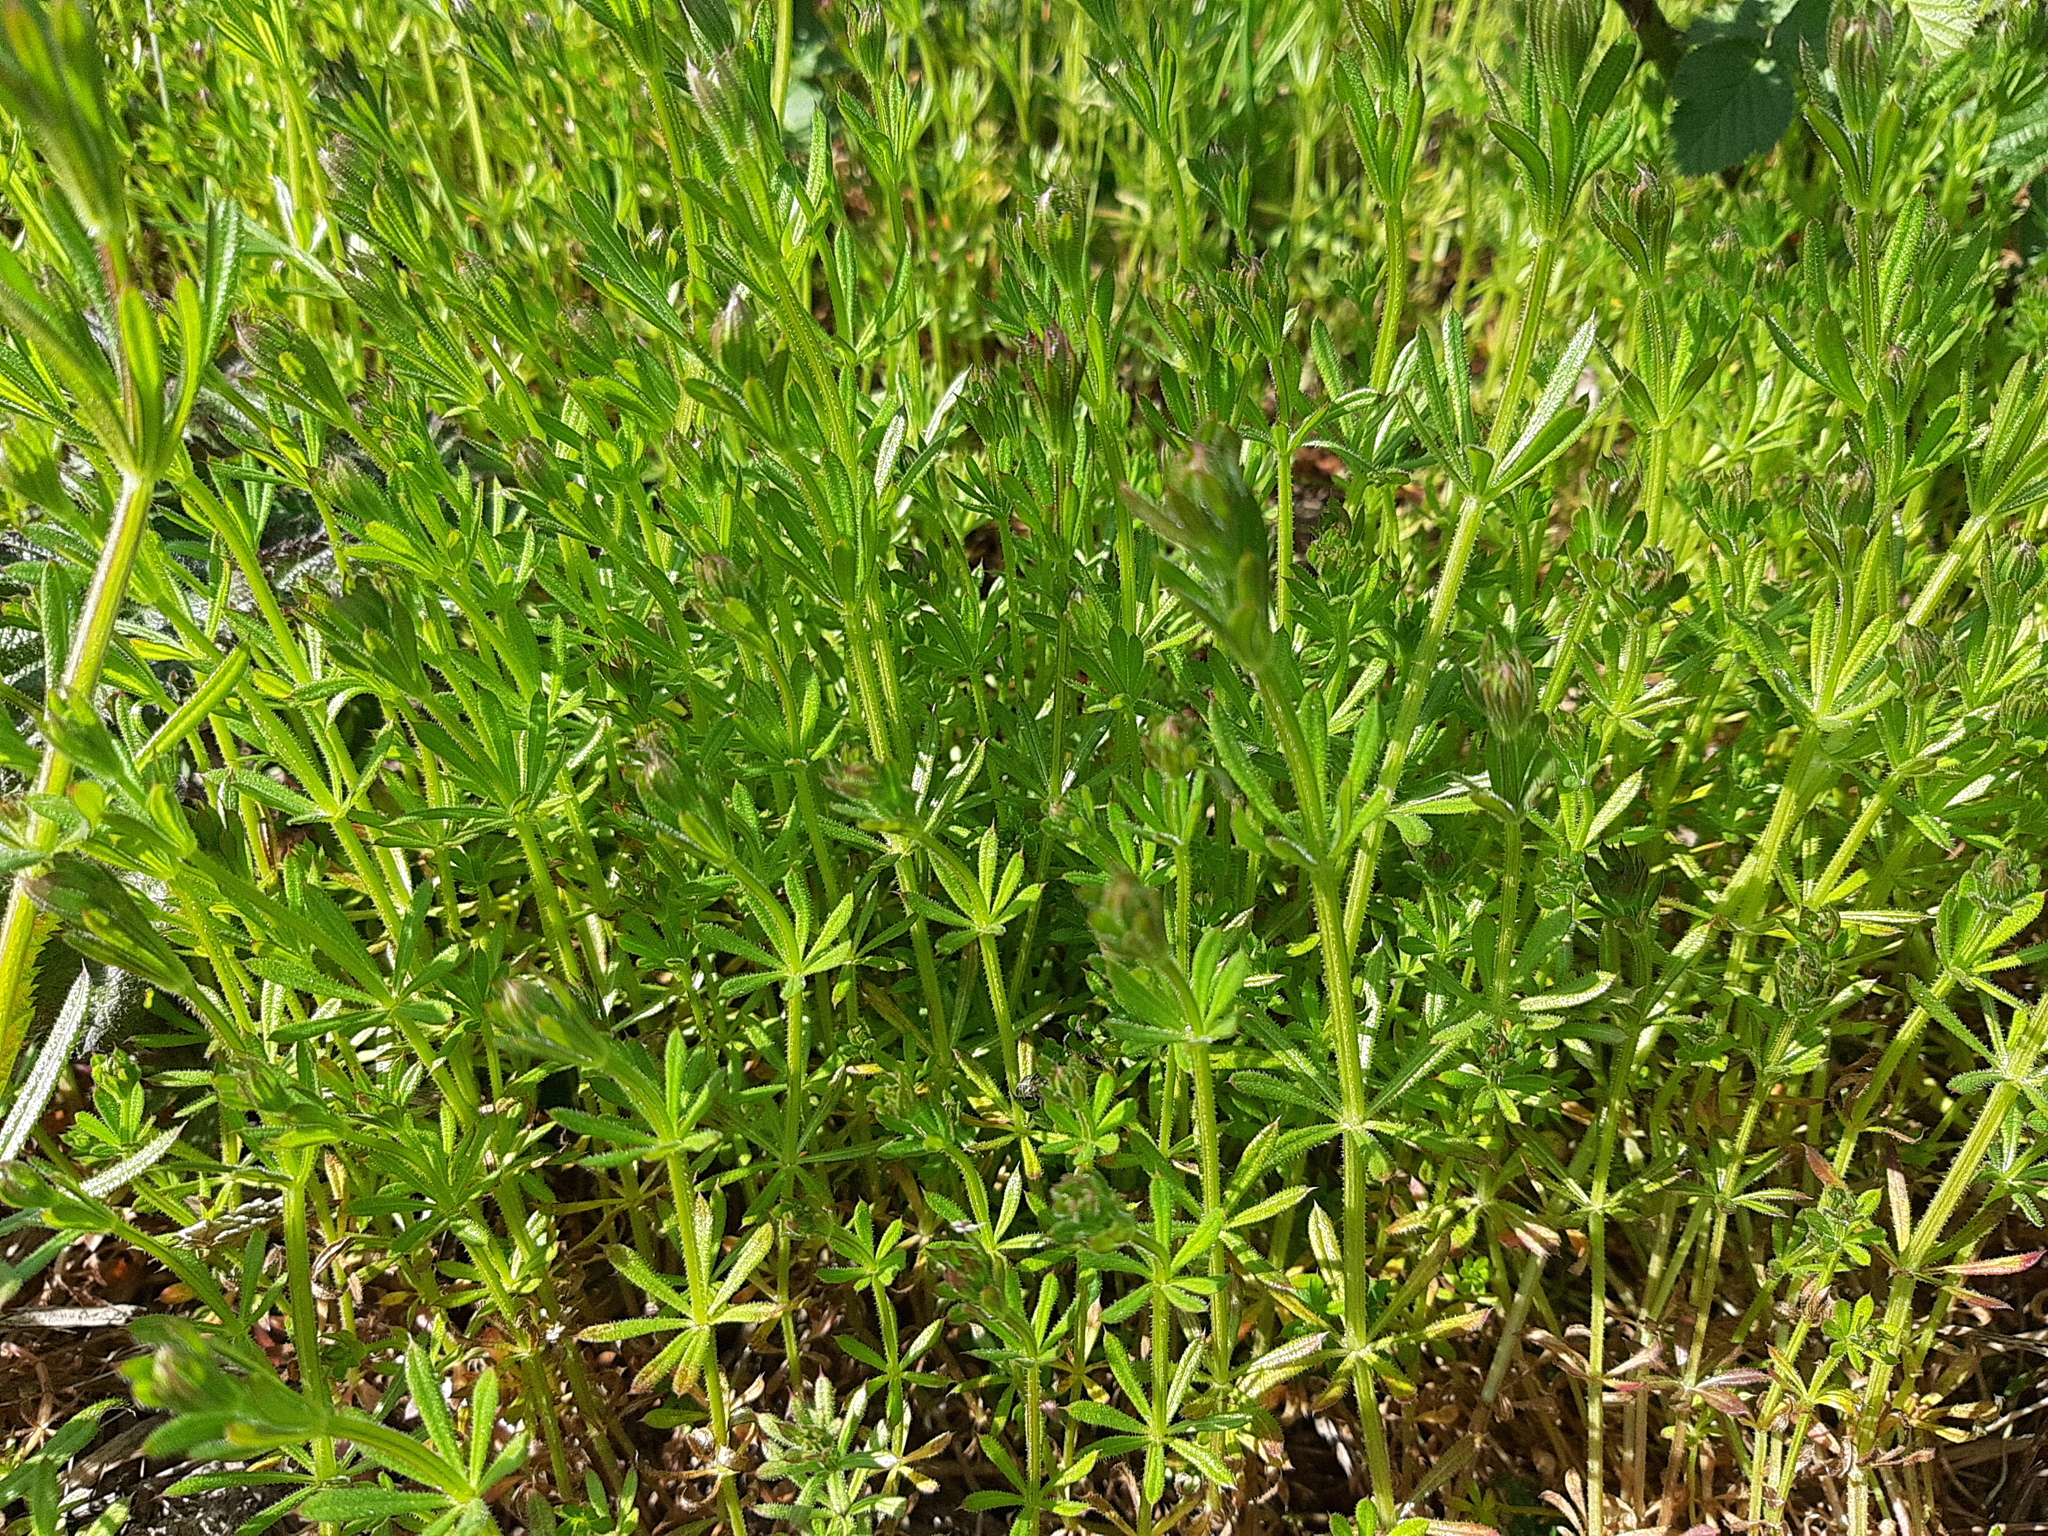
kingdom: Plantae
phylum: Tracheophyta
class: Magnoliopsida
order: Gentianales
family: Rubiaceae
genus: Galium
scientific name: Galium aparine
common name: Cleavers
